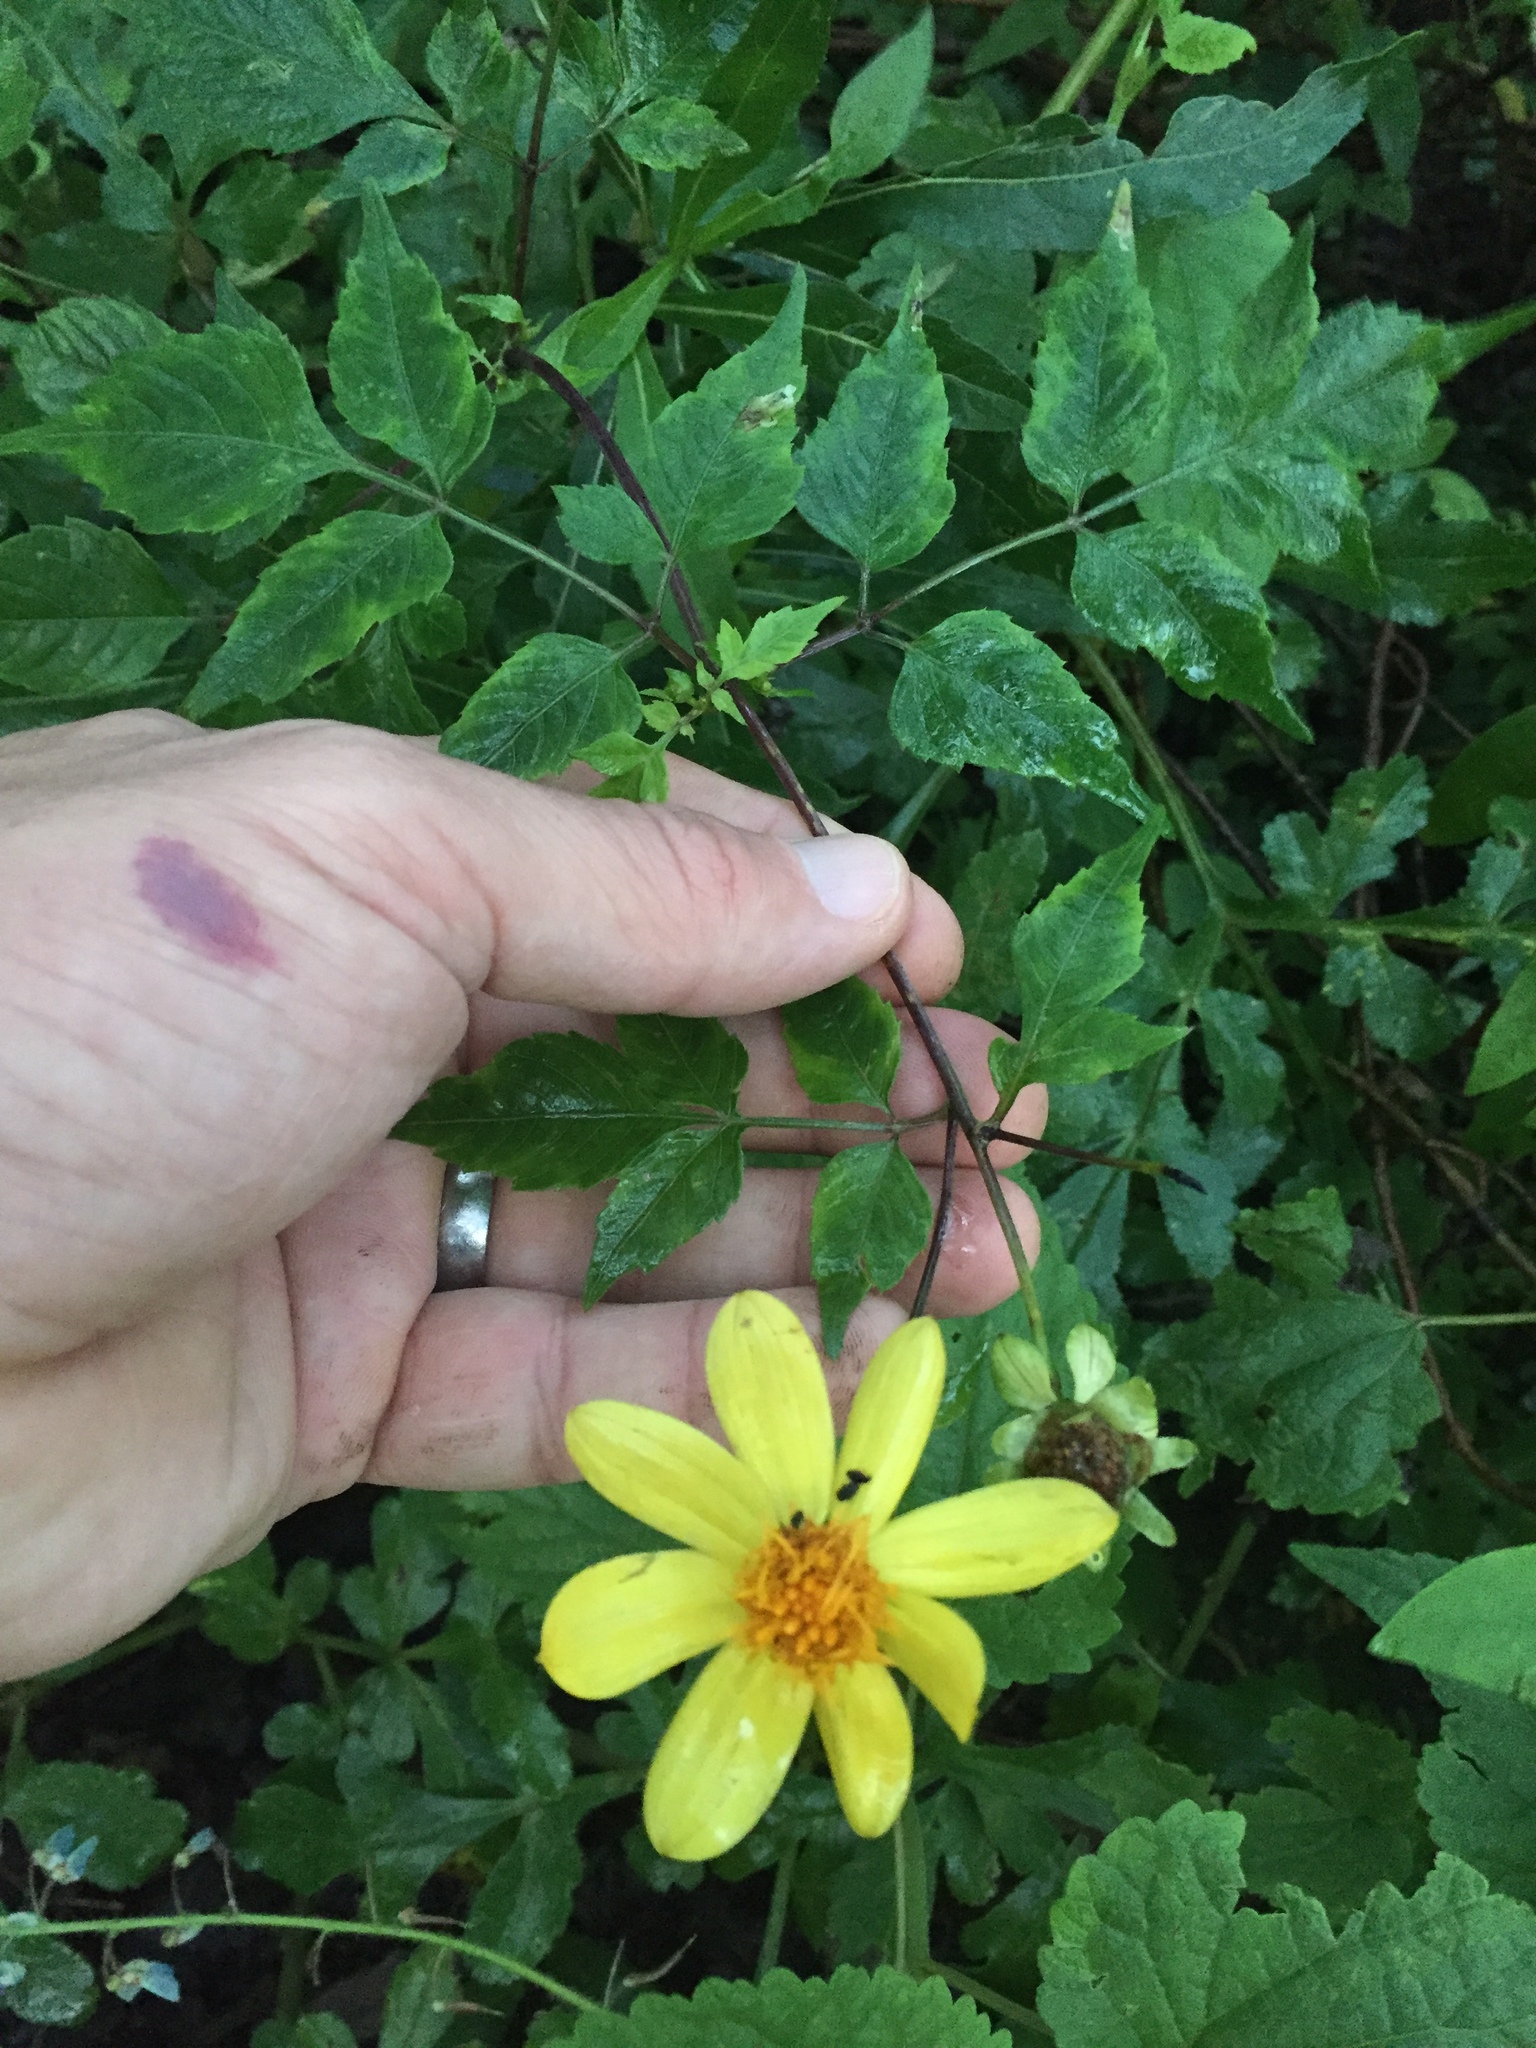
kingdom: Plantae
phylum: Tracheophyta
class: Magnoliopsida
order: Asterales
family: Asteraceae
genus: Dahlia
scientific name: Dahlia coccinea
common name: Red dahlia
